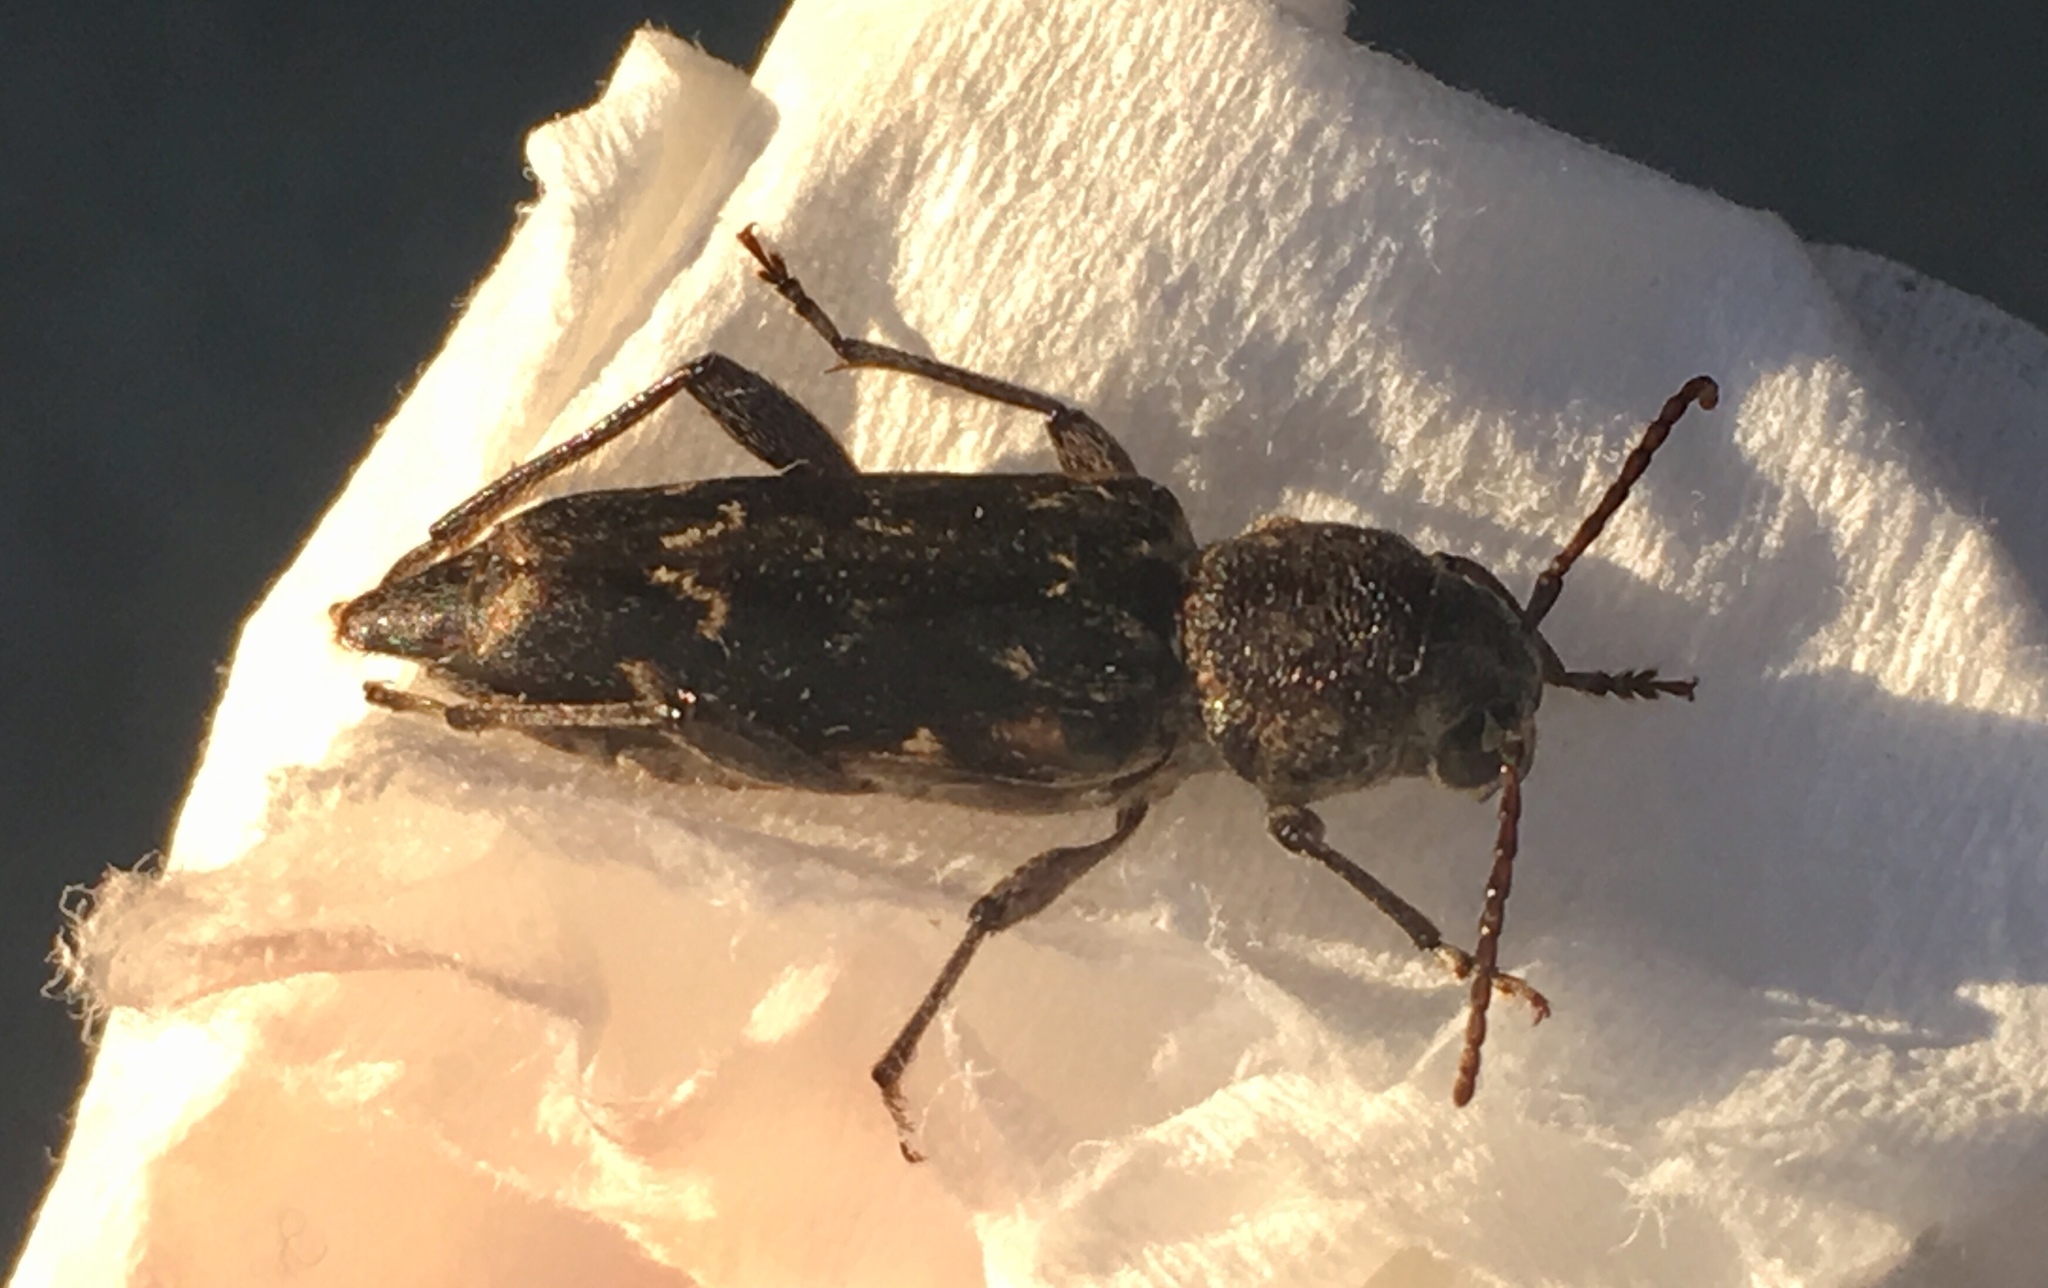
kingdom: Animalia
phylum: Arthropoda
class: Insecta
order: Coleoptera
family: Cerambycidae
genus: Xylotrechus
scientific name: Xylotrechus nauticus
